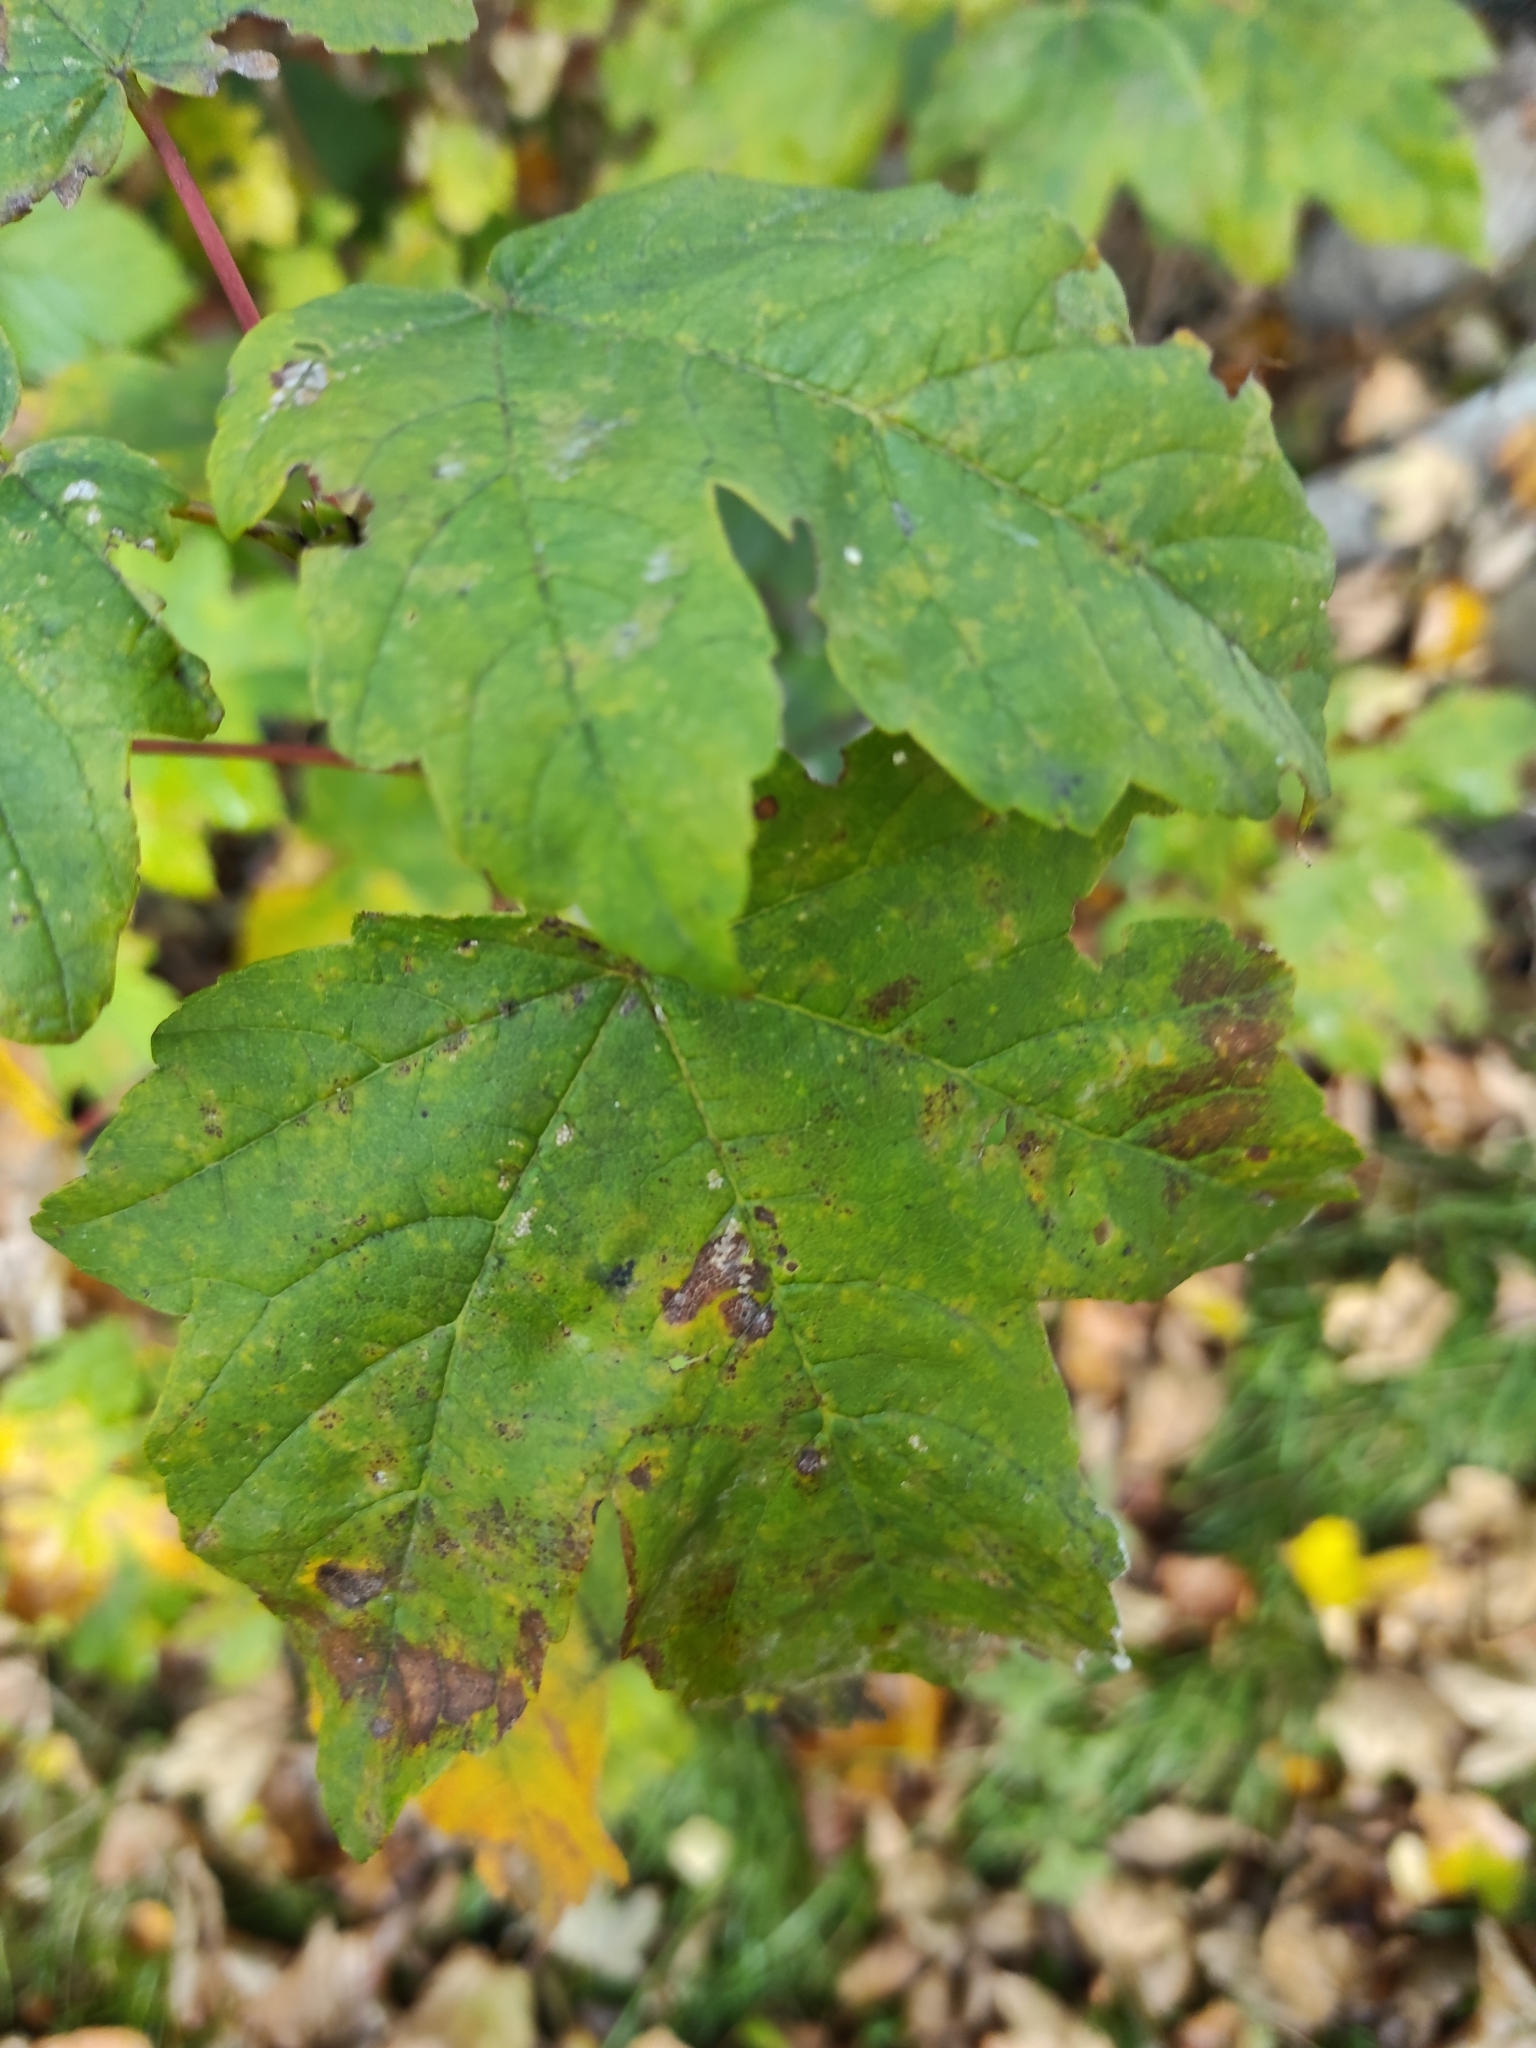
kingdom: Plantae
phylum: Tracheophyta
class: Magnoliopsida
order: Sapindales
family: Sapindaceae
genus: Acer
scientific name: Acer pseudoplatanus
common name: Sycamore
